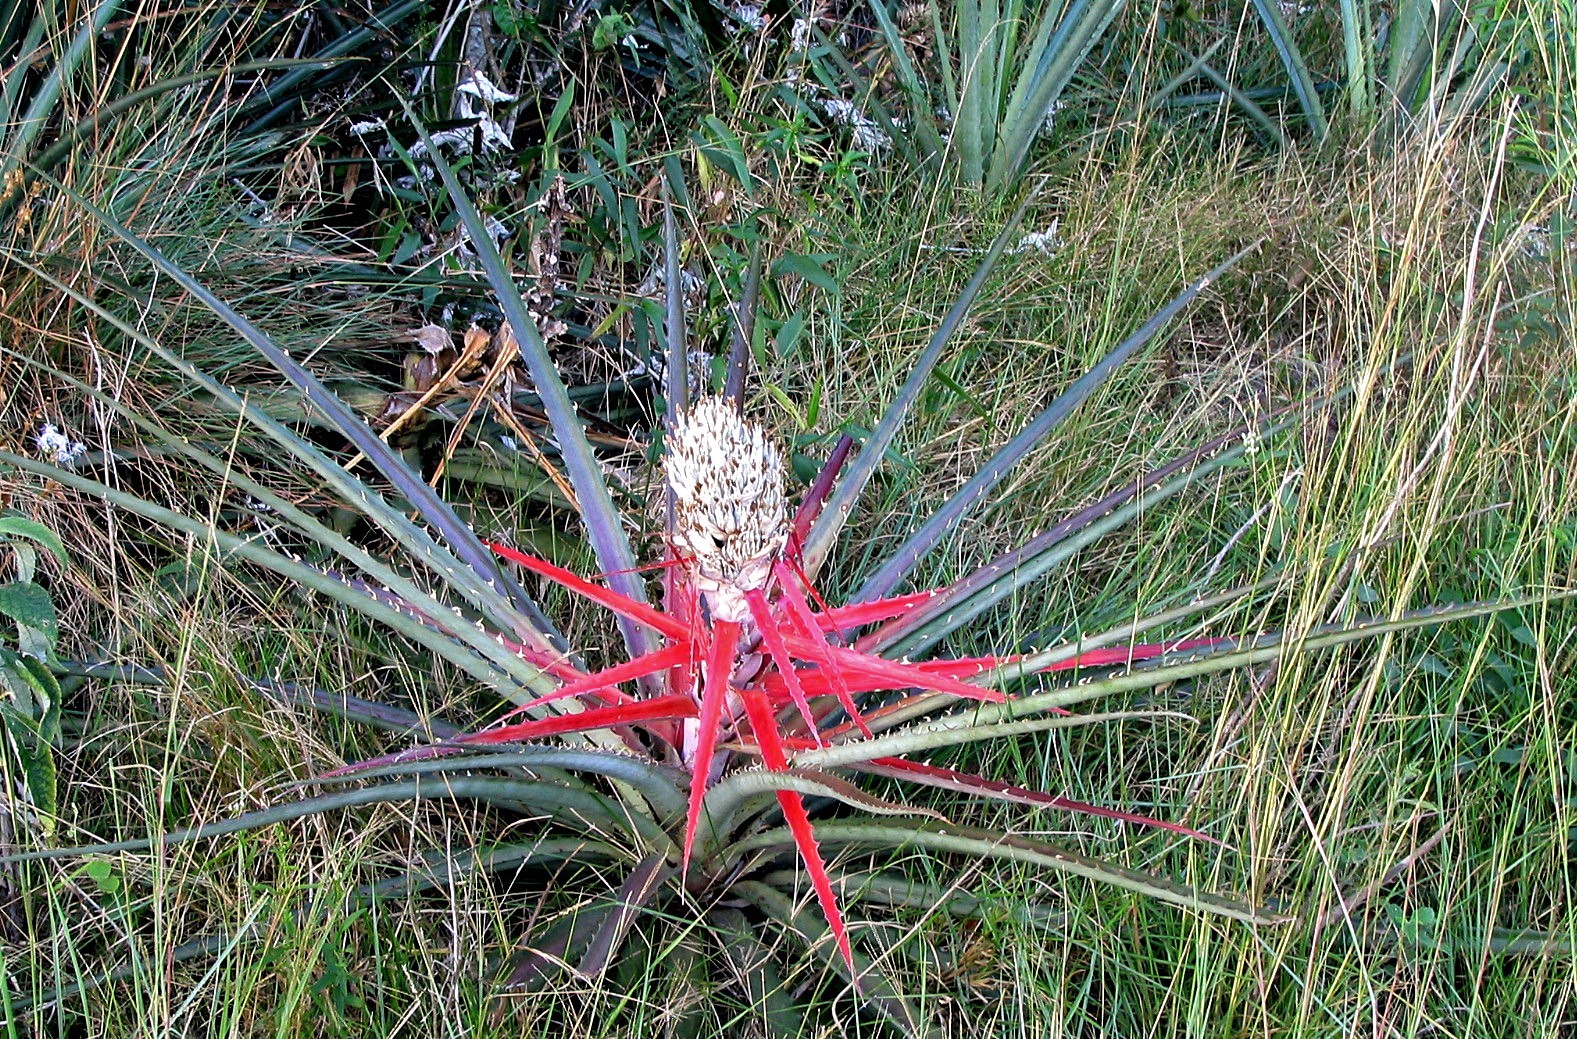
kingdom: Plantae
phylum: Tracheophyta
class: Liliopsida
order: Poales
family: Bromeliaceae
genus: Bromelia
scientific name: Bromelia balansae
